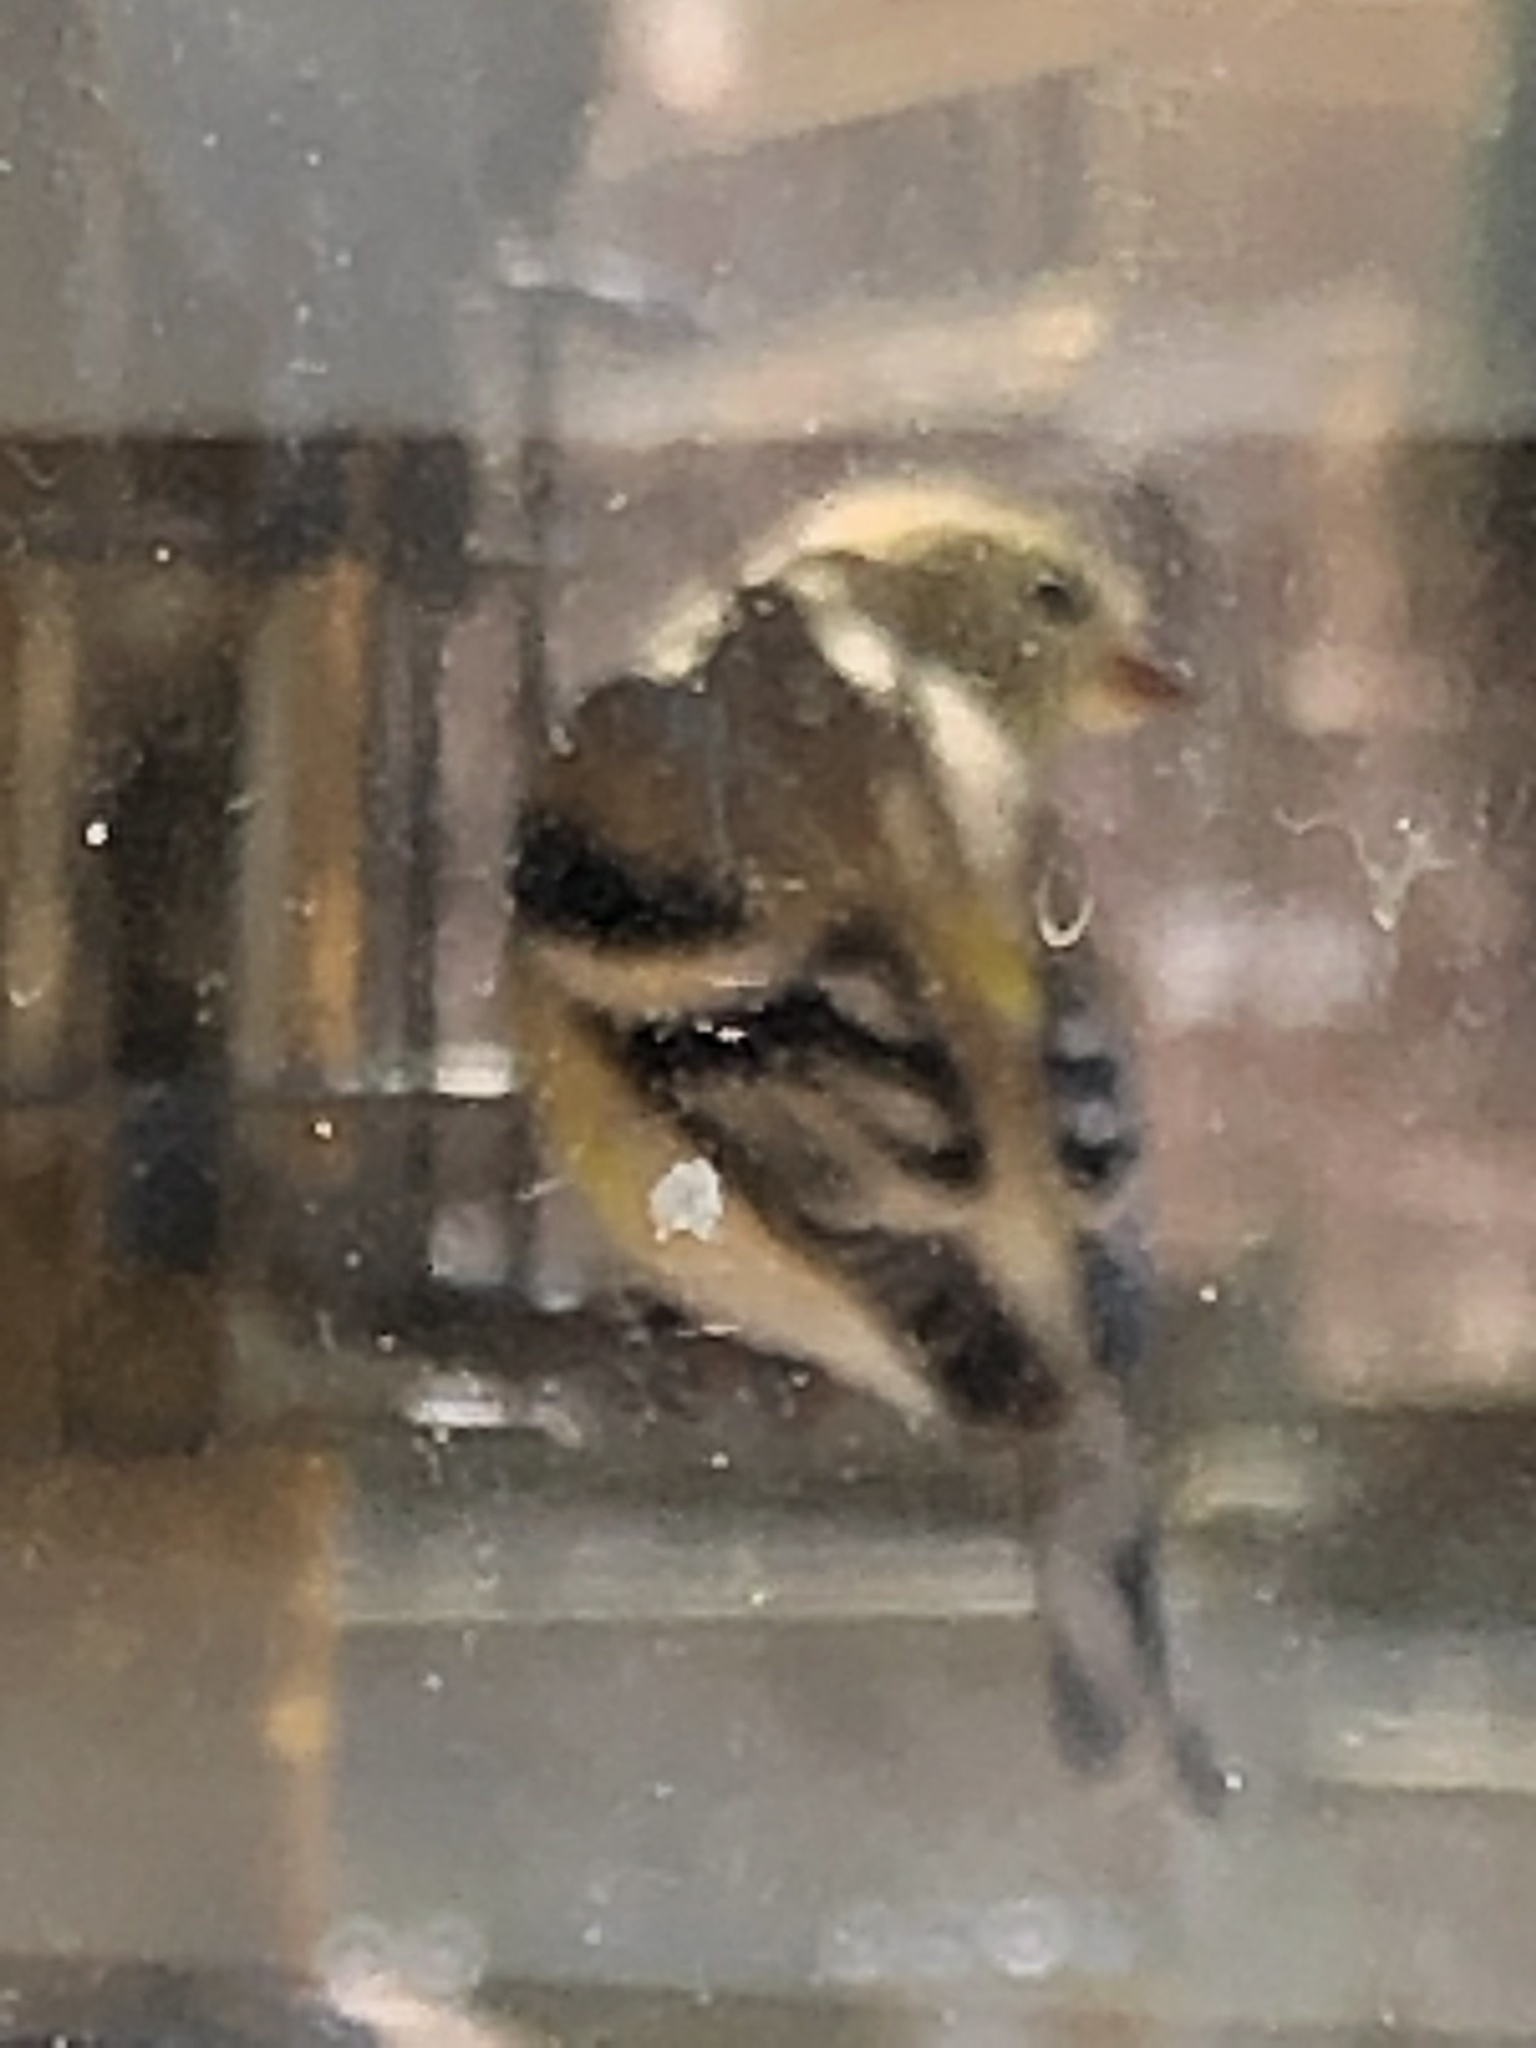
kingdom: Animalia
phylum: Chordata
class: Aves
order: Passeriformes
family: Fringillidae
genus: Spinus
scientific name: Spinus tristis
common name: American goldfinch
